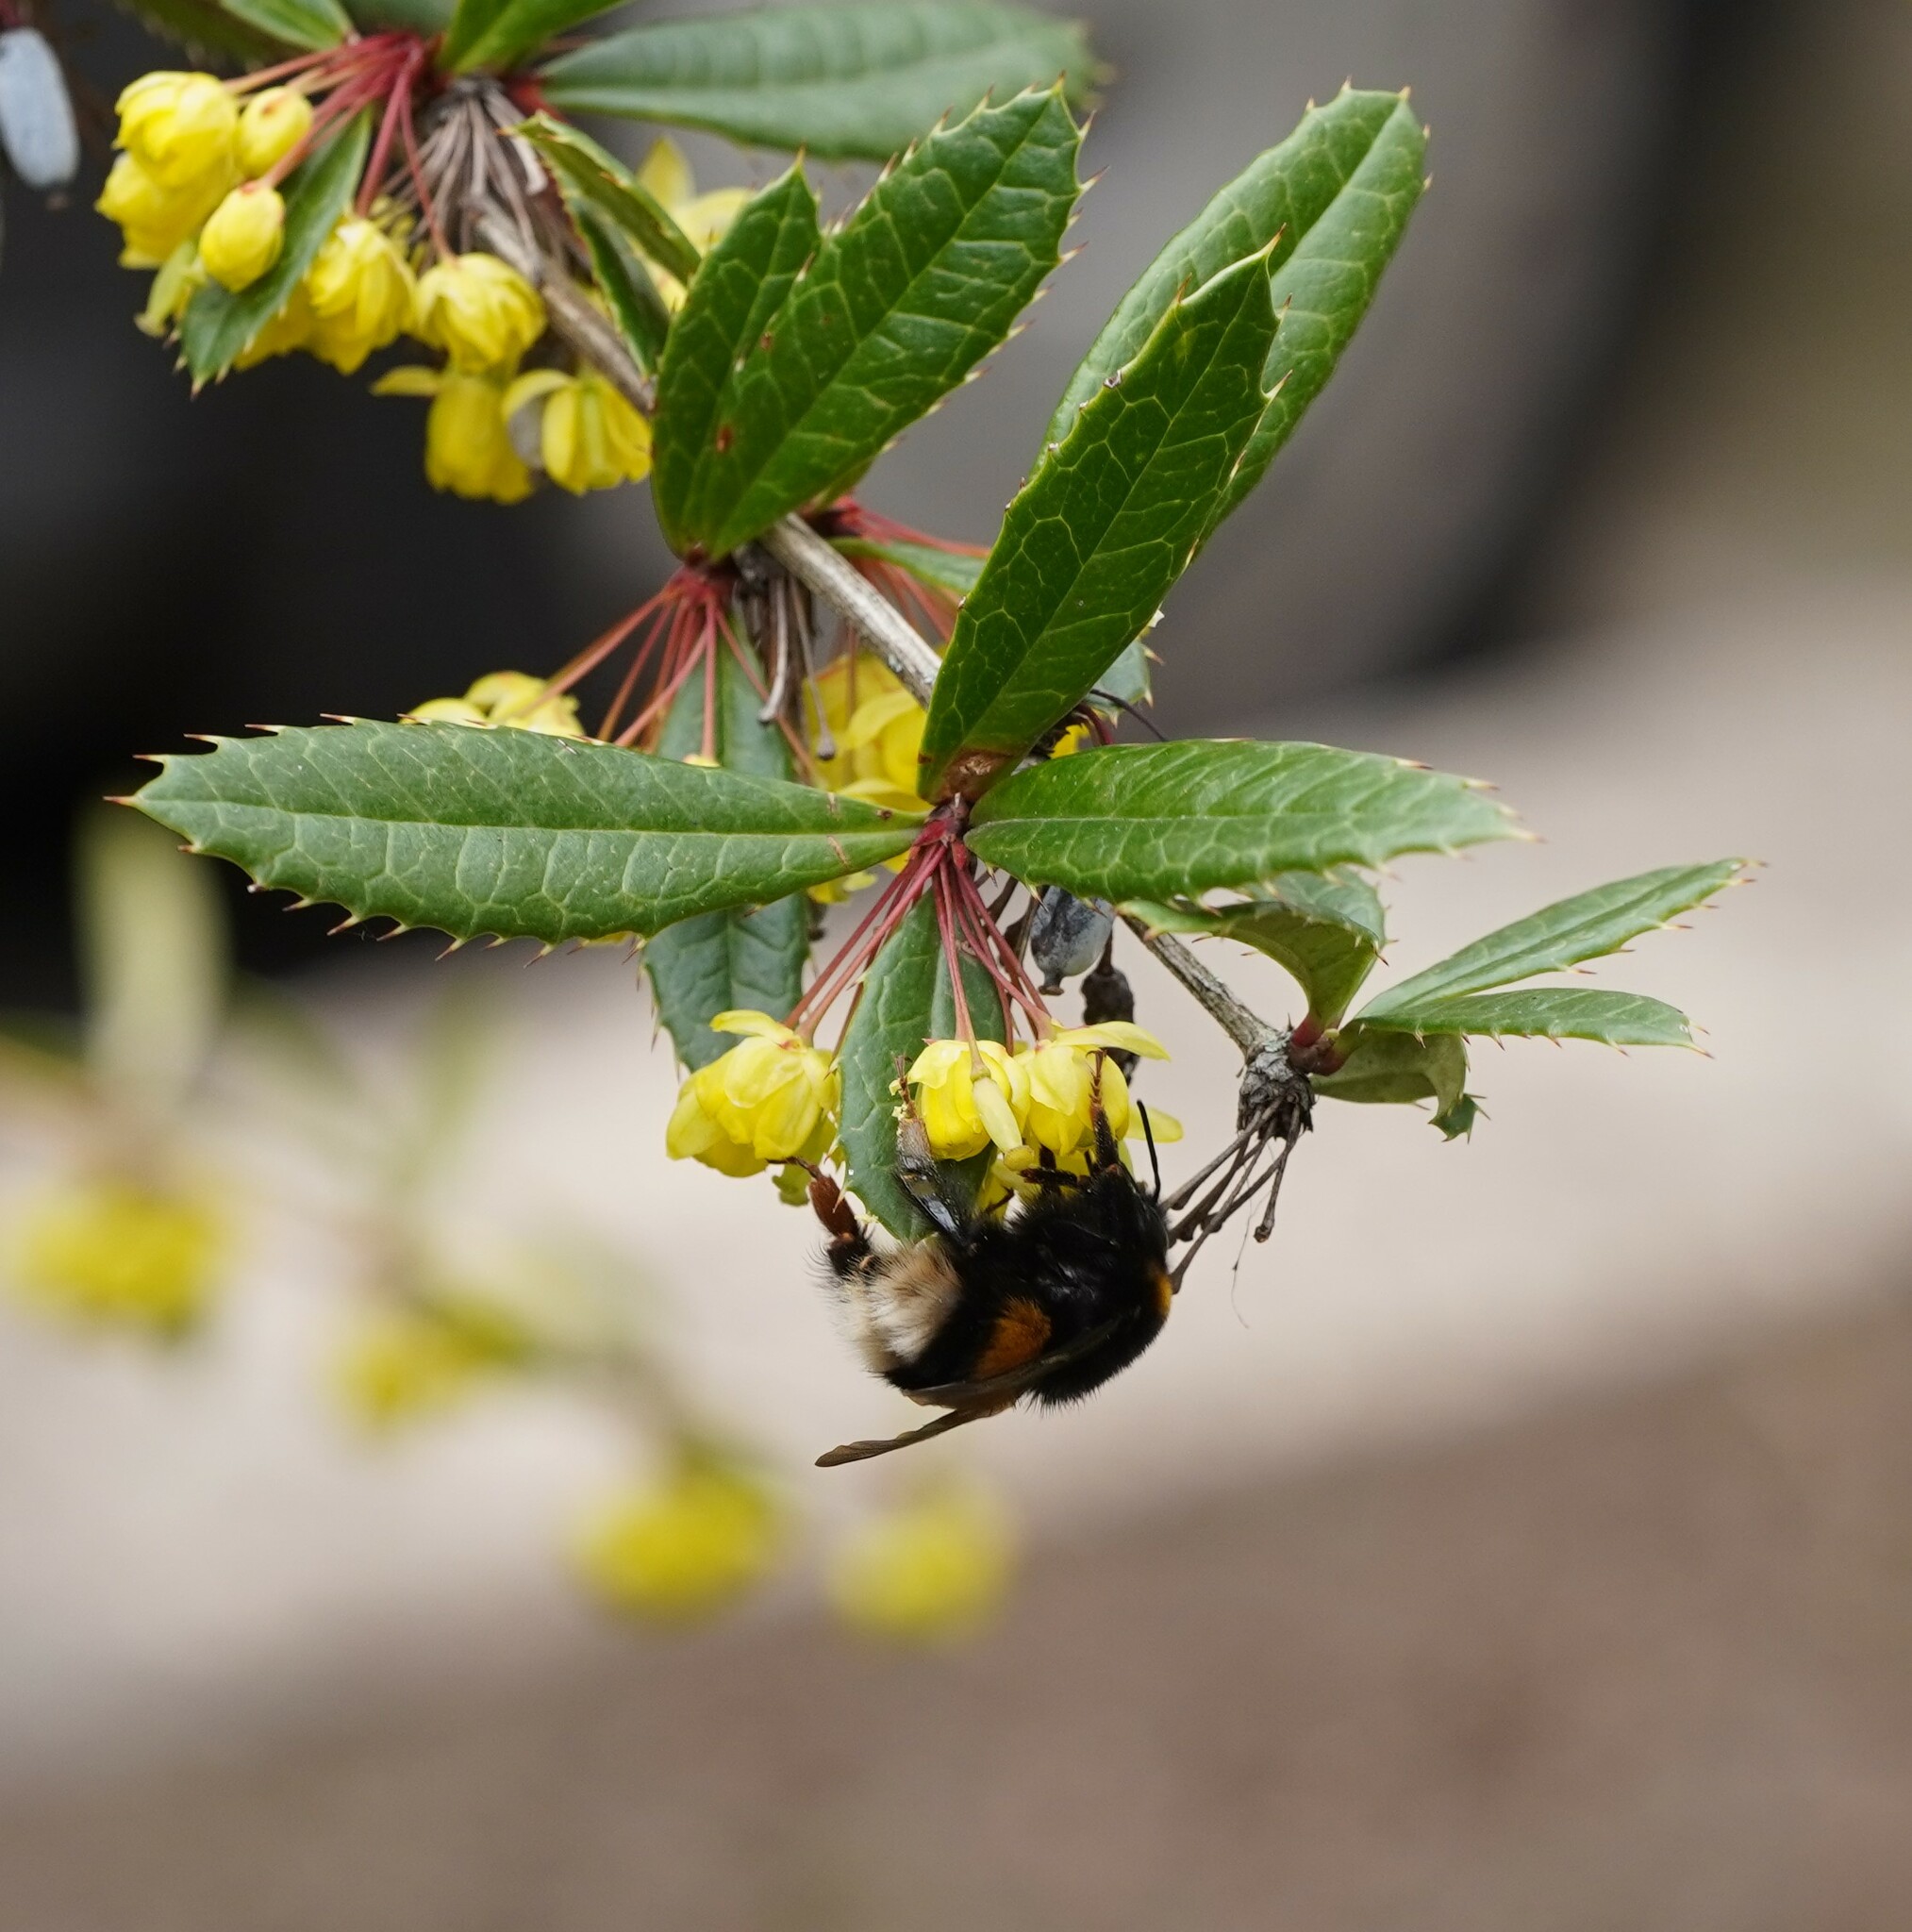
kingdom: Animalia
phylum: Arthropoda
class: Insecta
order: Hymenoptera
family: Apidae
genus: Bombus
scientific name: Bombus
